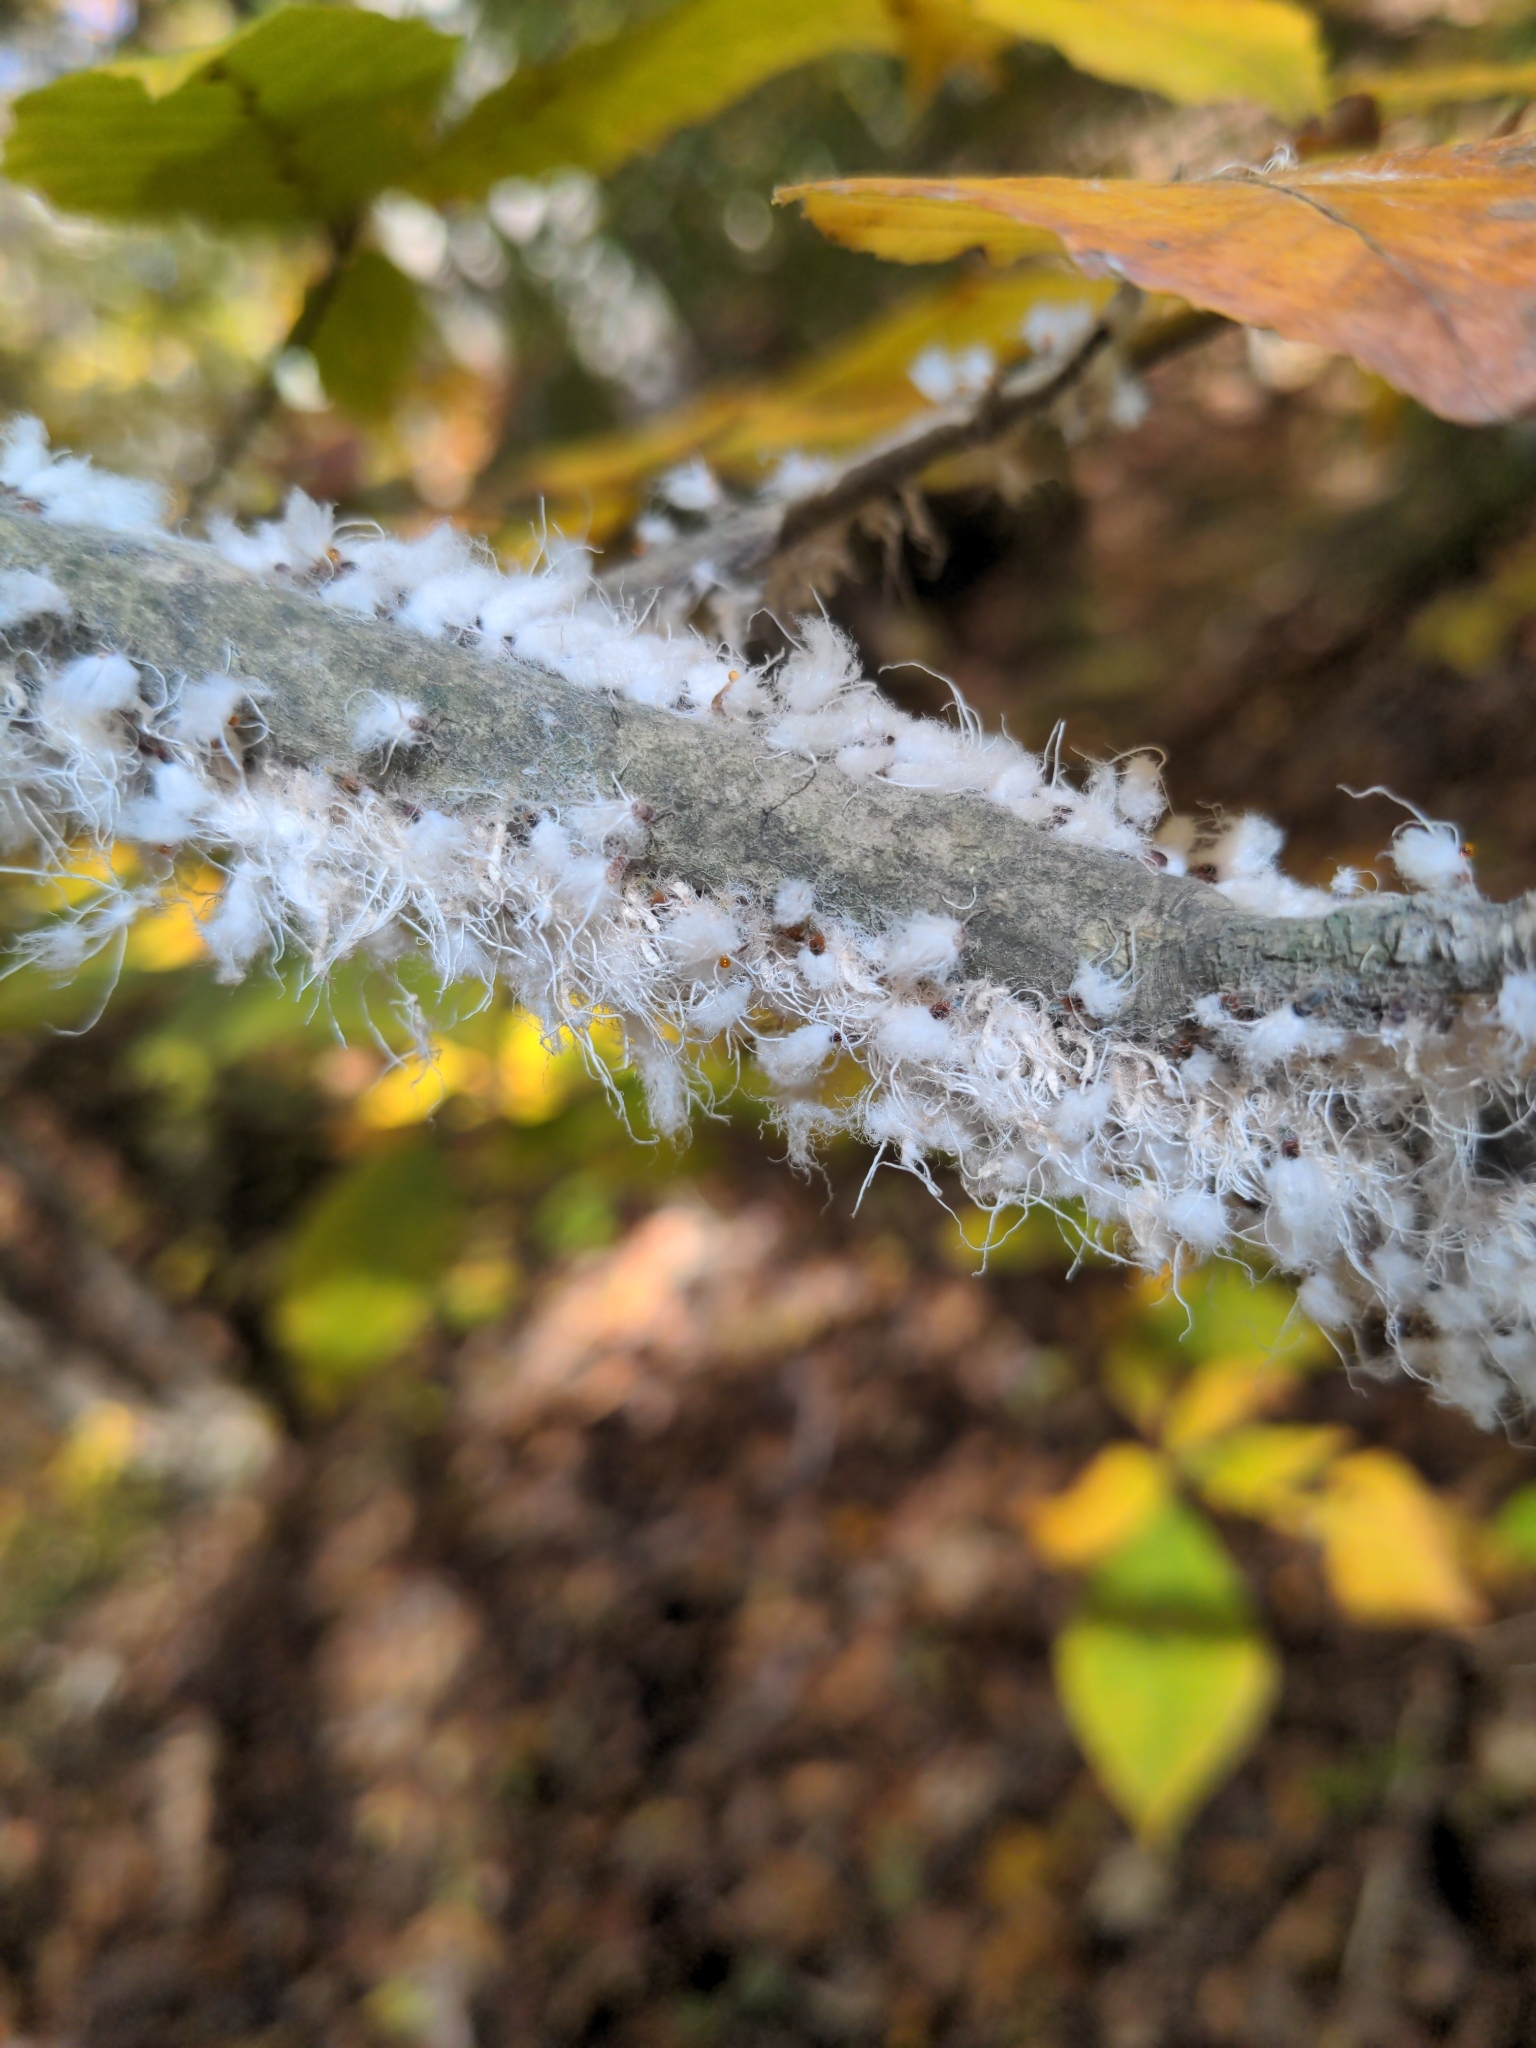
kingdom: Animalia
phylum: Arthropoda
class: Insecta
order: Hemiptera
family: Aphididae
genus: Grylloprociphilus
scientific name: Grylloprociphilus imbricator
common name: Beech blight aphid
